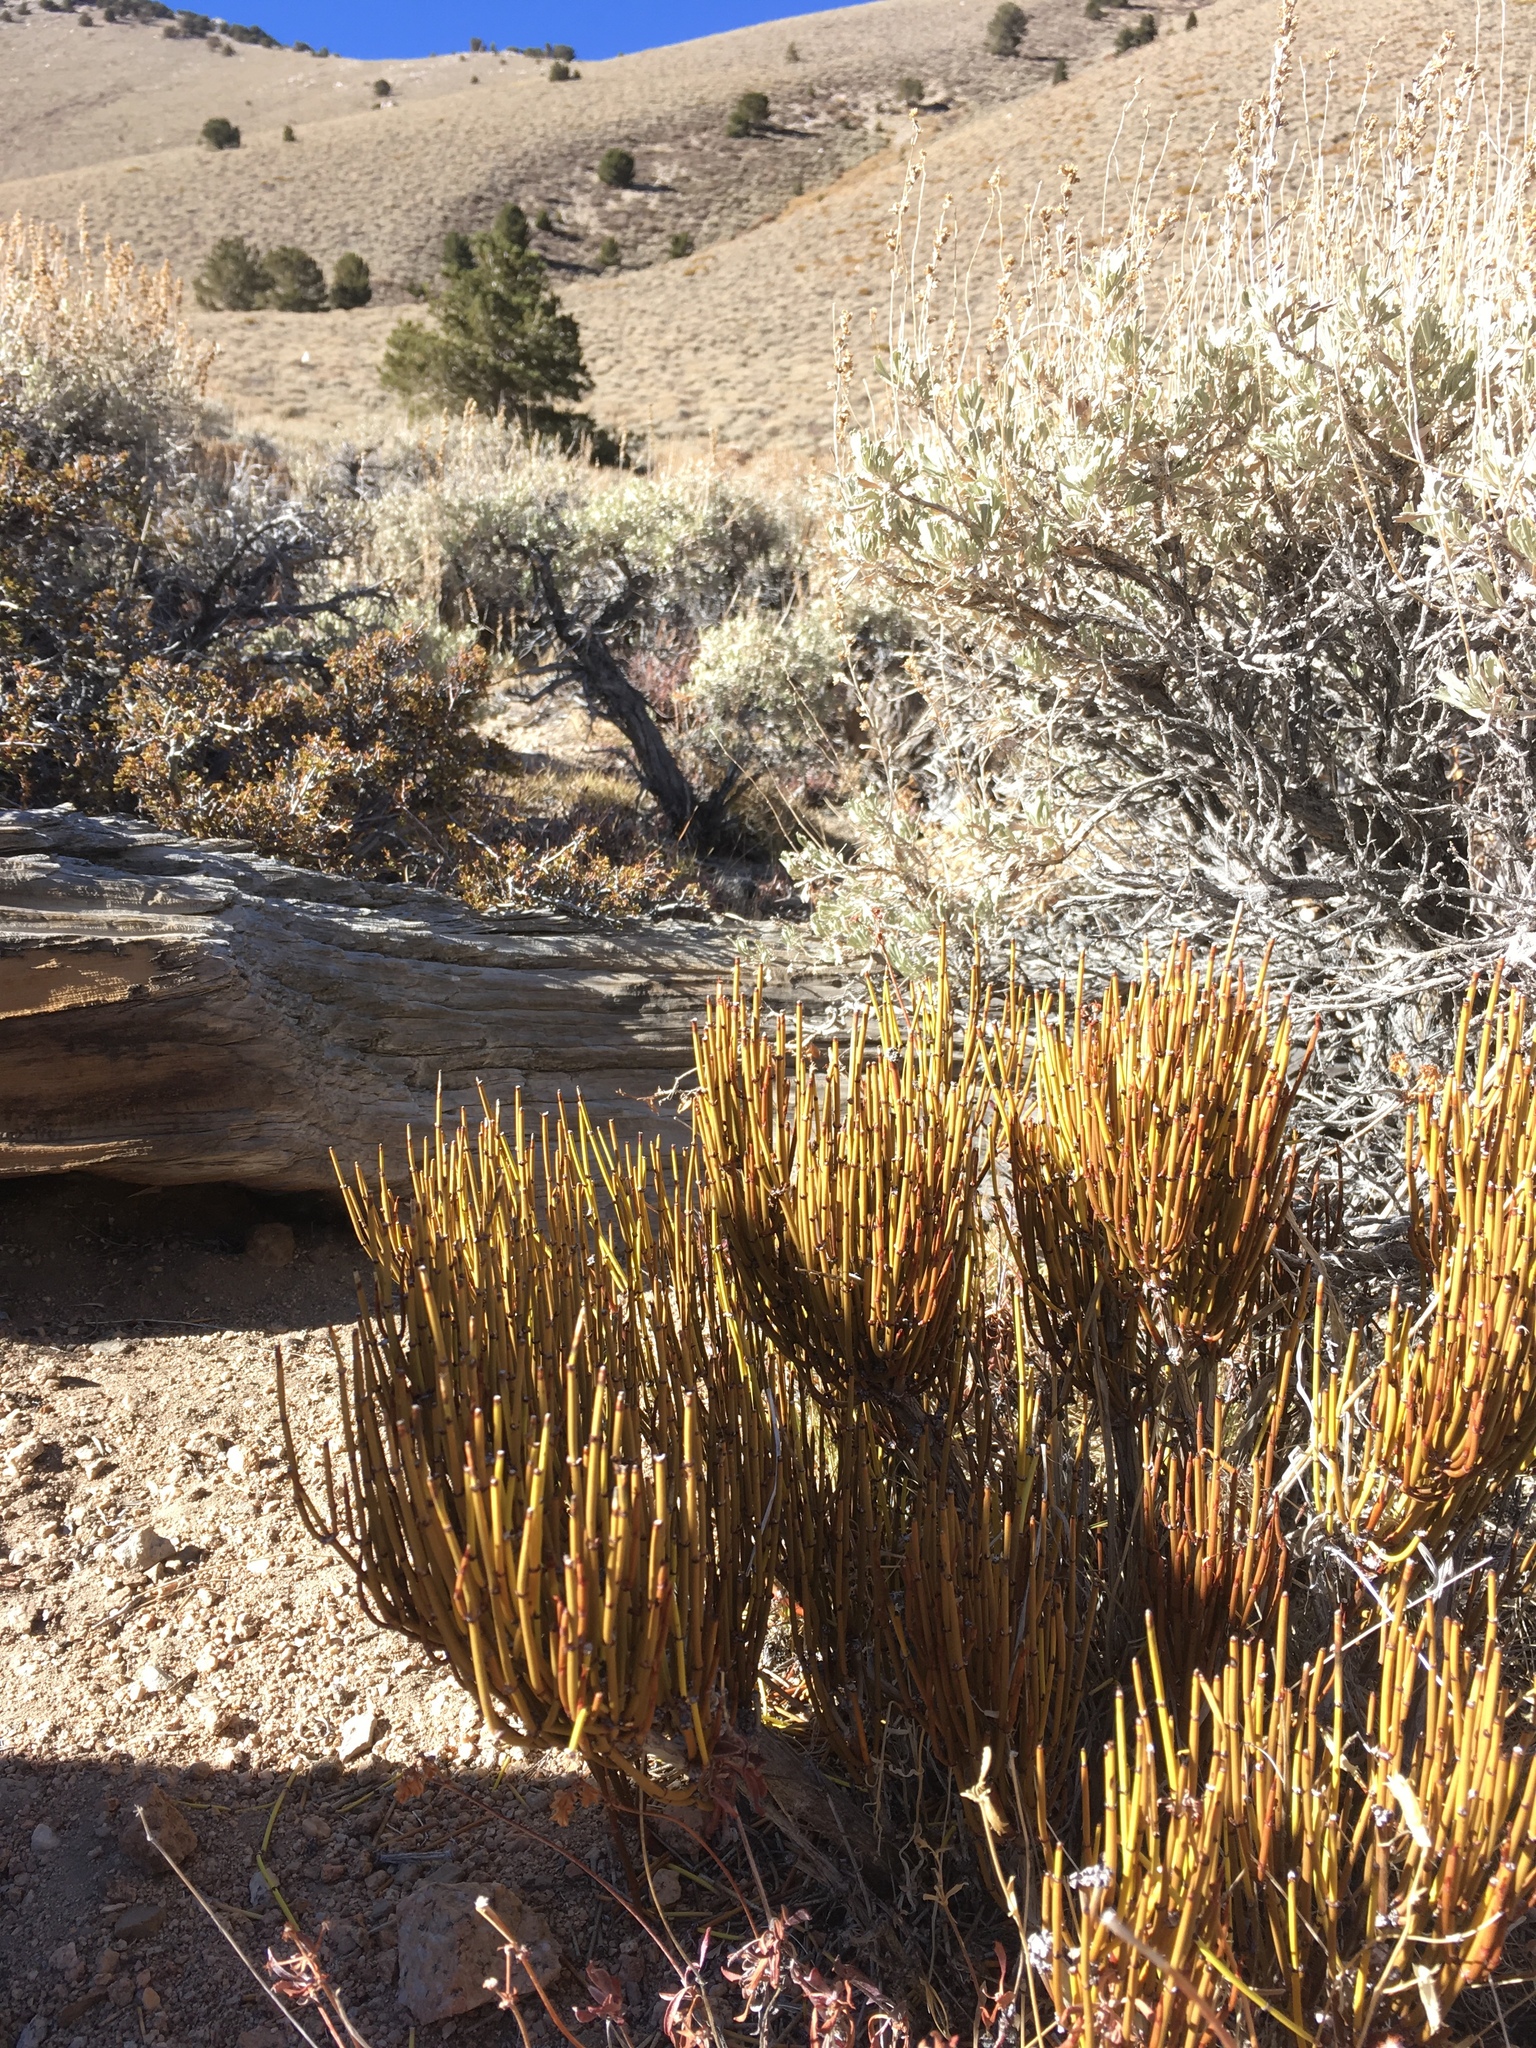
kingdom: Plantae
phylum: Tracheophyta
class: Gnetopsida
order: Ephedrales
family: Ephedraceae
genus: Ephedra
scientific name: Ephedra viridis
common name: Green ephedra
